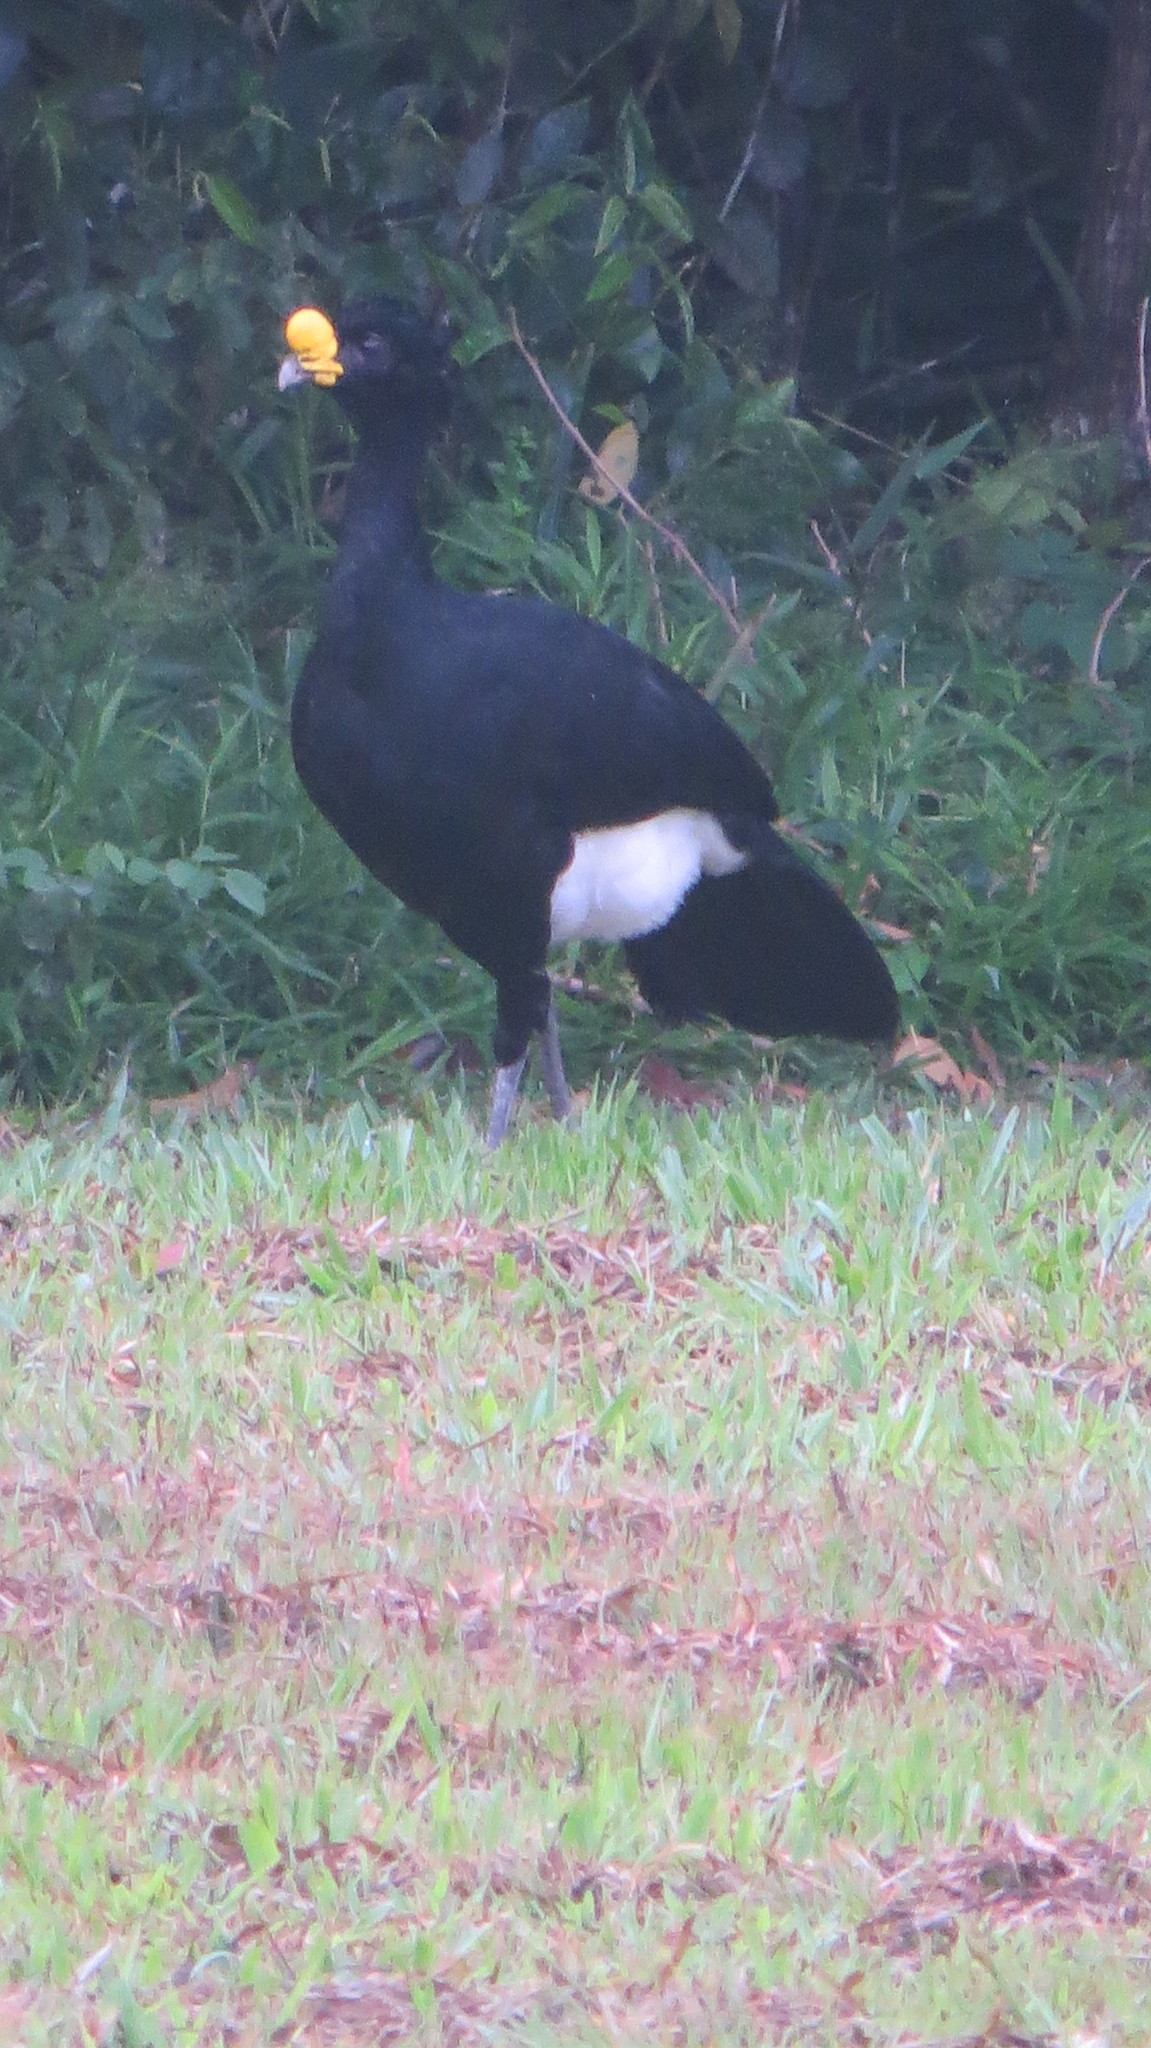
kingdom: Animalia
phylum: Chordata
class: Aves
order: Galliformes
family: Cracidae
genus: Crax
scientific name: Crax rubra
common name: Great curassow
